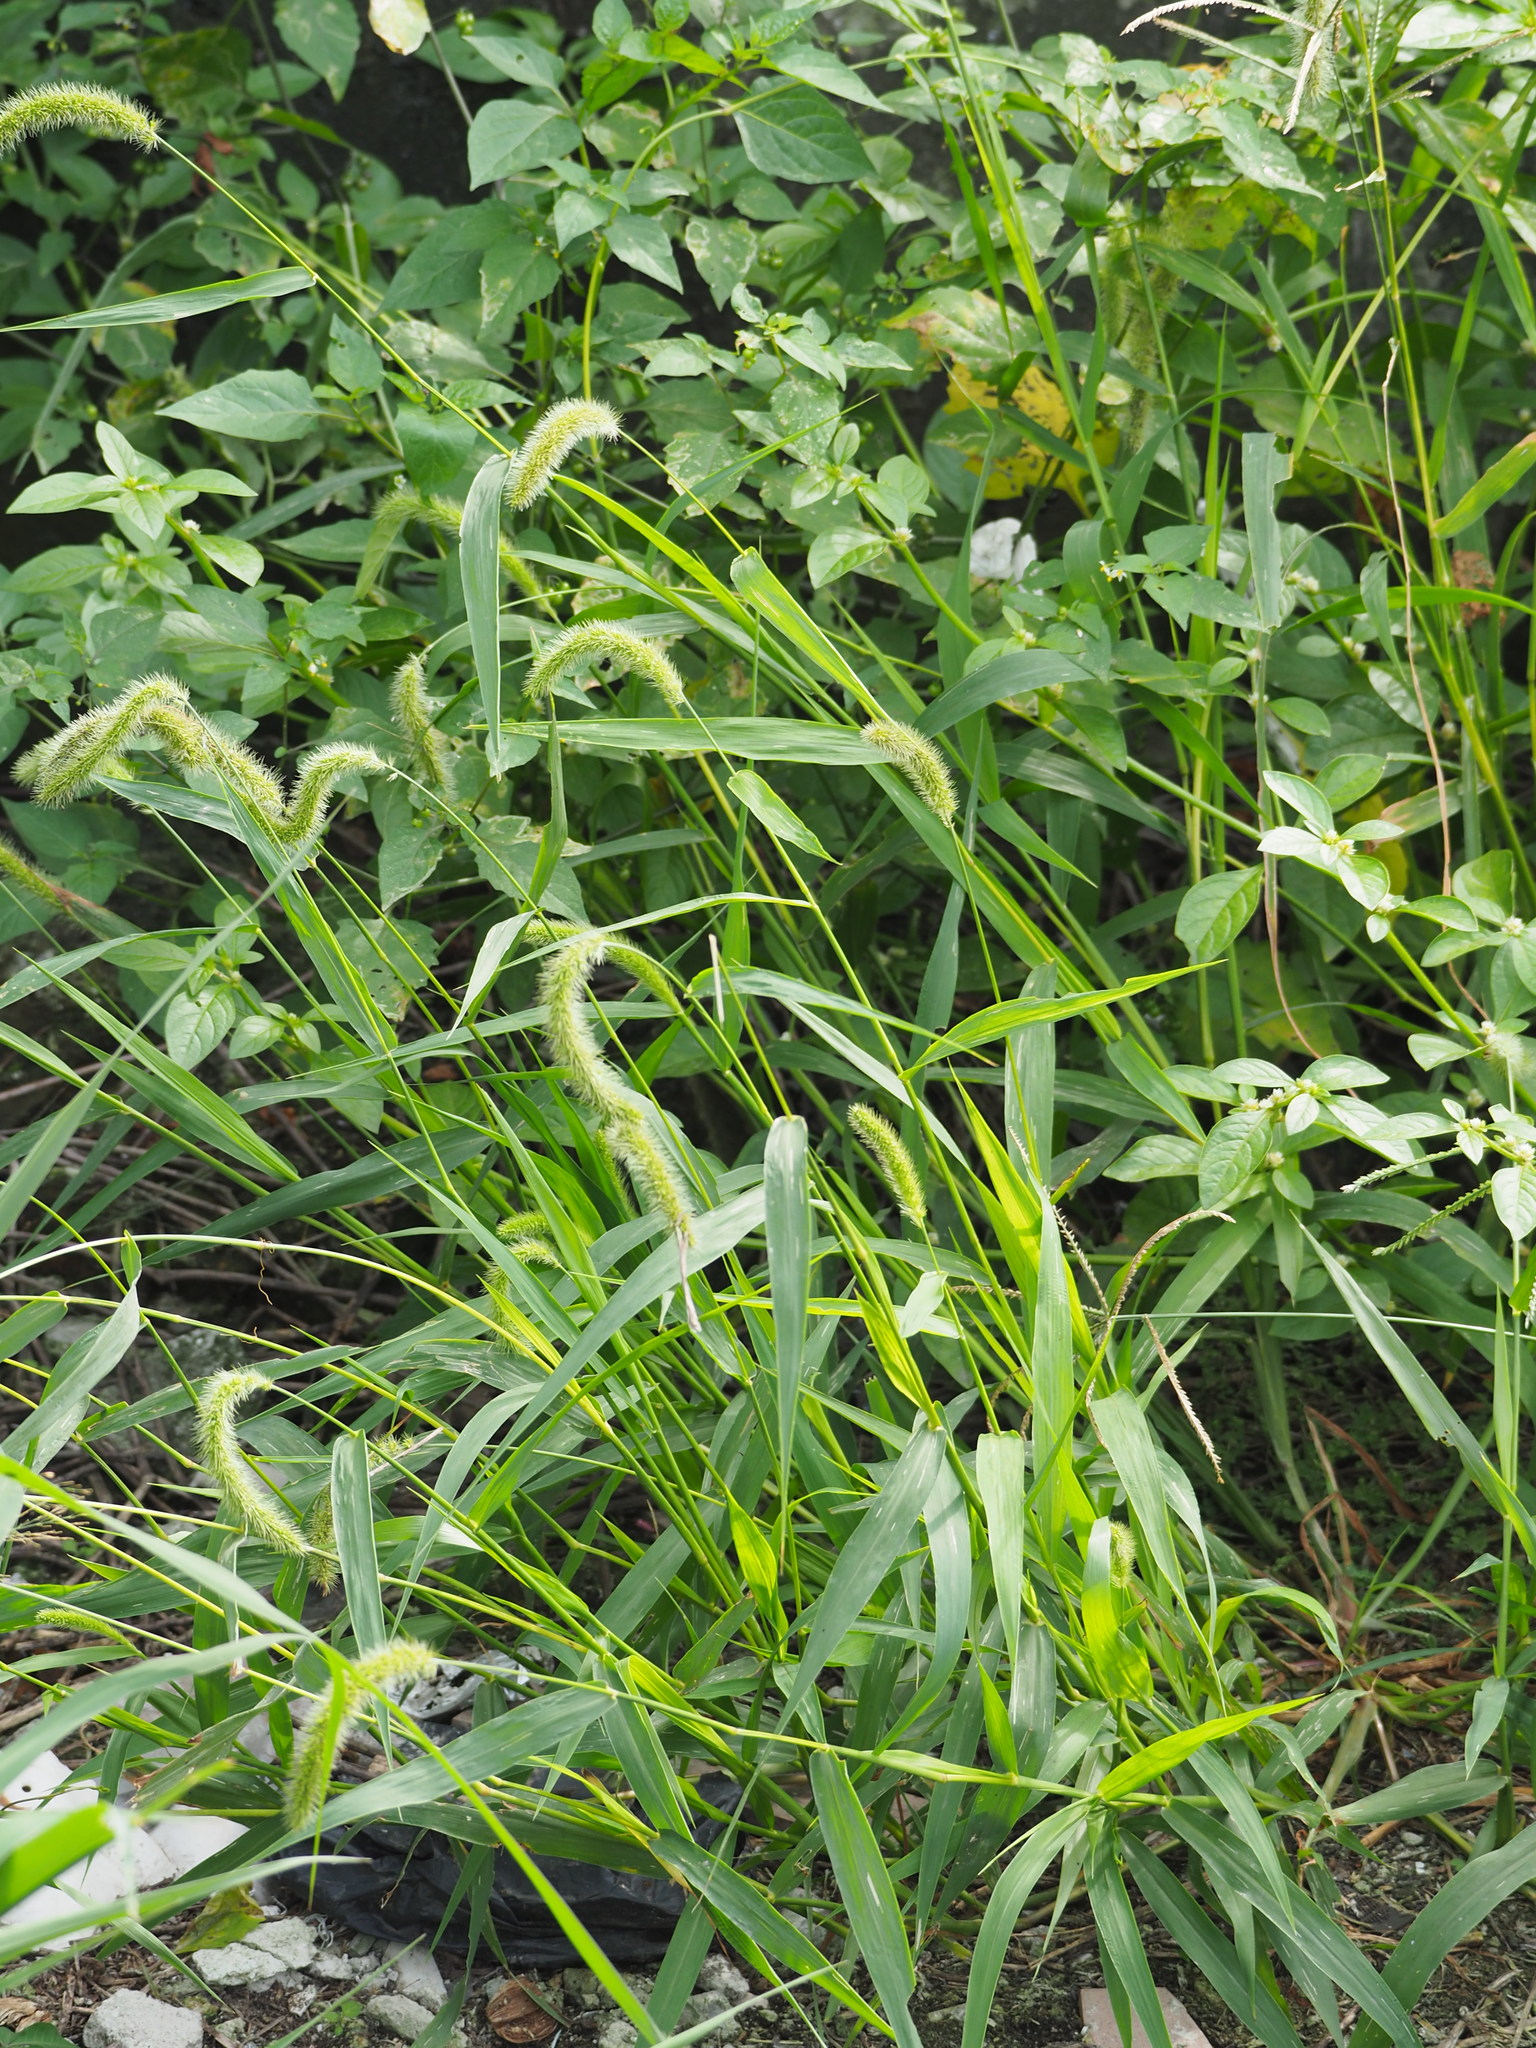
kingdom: Plantae
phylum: Tracheophyta
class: Liliopsida
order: Poales
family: Poaceae
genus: Setaria
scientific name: Setaria verticillata
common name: Hooked bristlegrass
